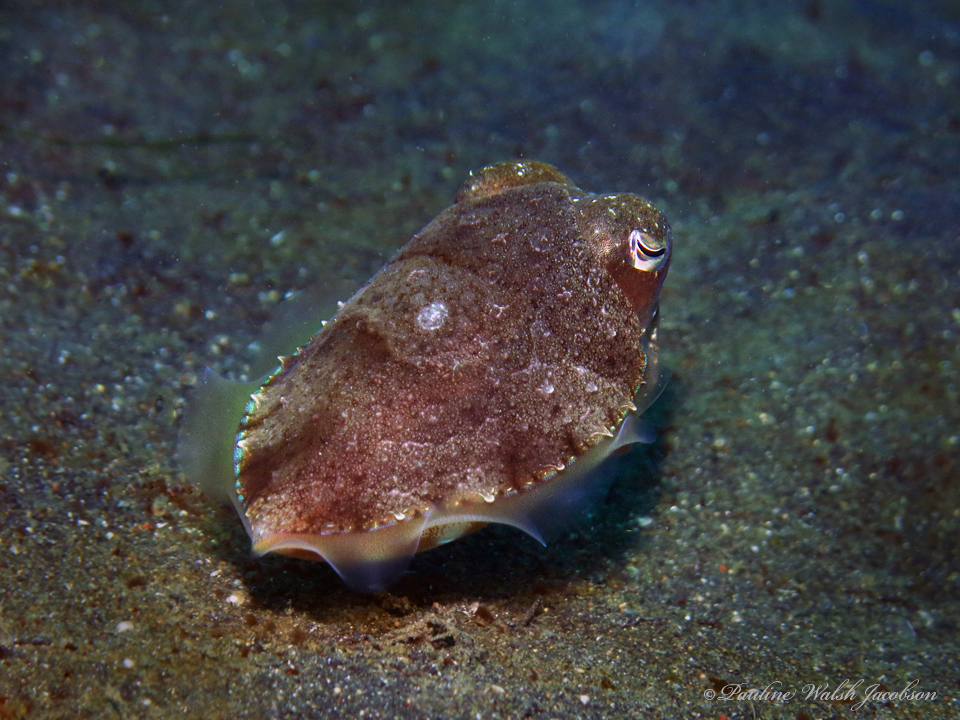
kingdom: Animalia
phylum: Mollusca
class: Cephalopoda
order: Sepiida
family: Sepiidae
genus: Acanthosepion
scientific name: Acanthosepion esculentum
